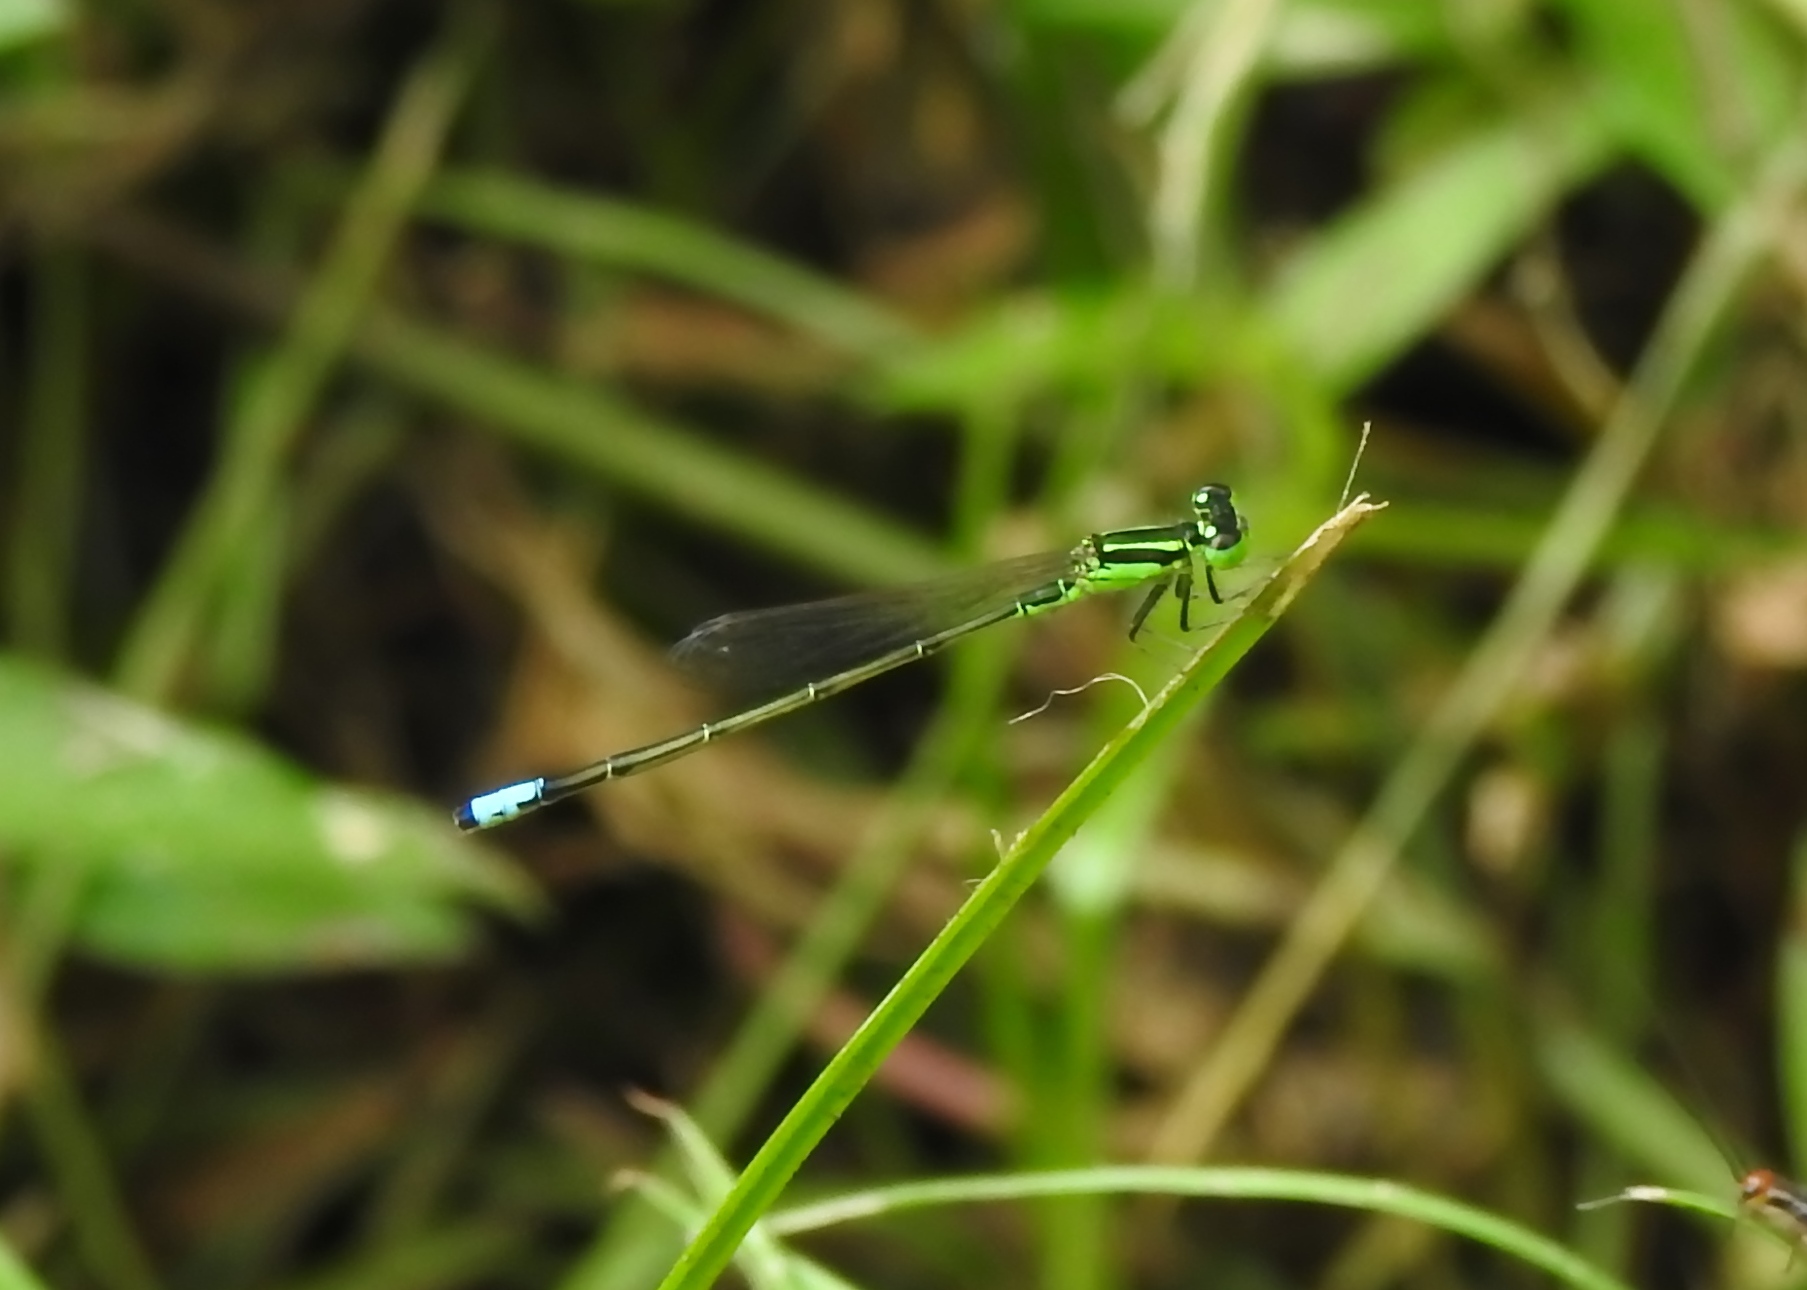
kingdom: Animalia
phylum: Arthropoda
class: Insecta
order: Odonata
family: Coenagrionidae
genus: Ischnura
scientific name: Ischnura verticalis
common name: Eastern forktail
